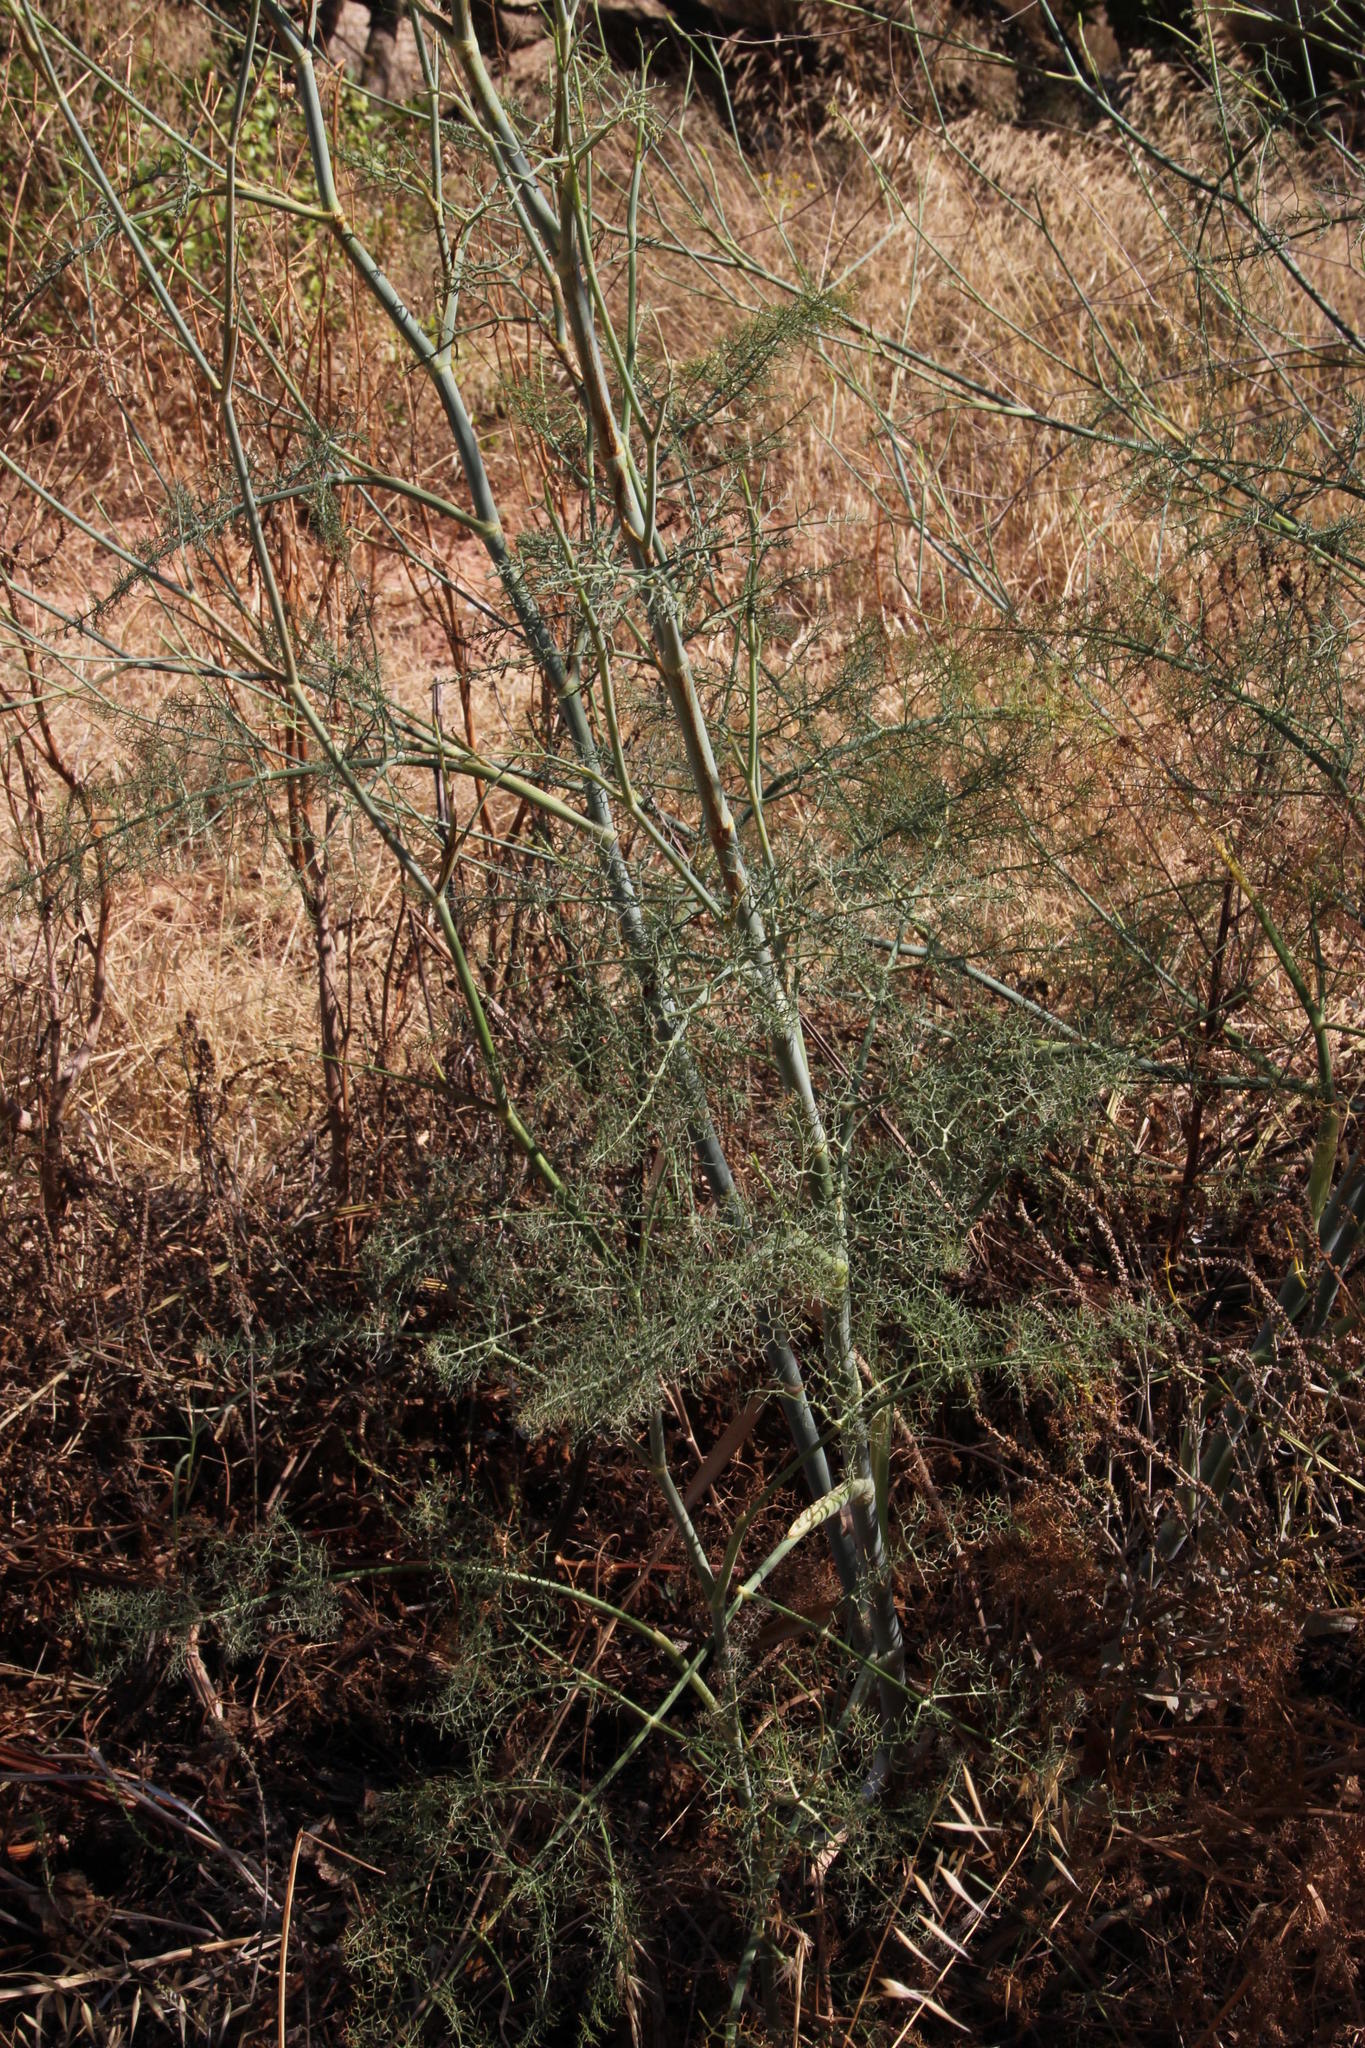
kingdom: Plantae
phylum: Tracheophyta
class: Magnoliopsida
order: Apiales
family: Apiaceae
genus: Foeniculum
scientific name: Foeniculum vulgare
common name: Fennel
